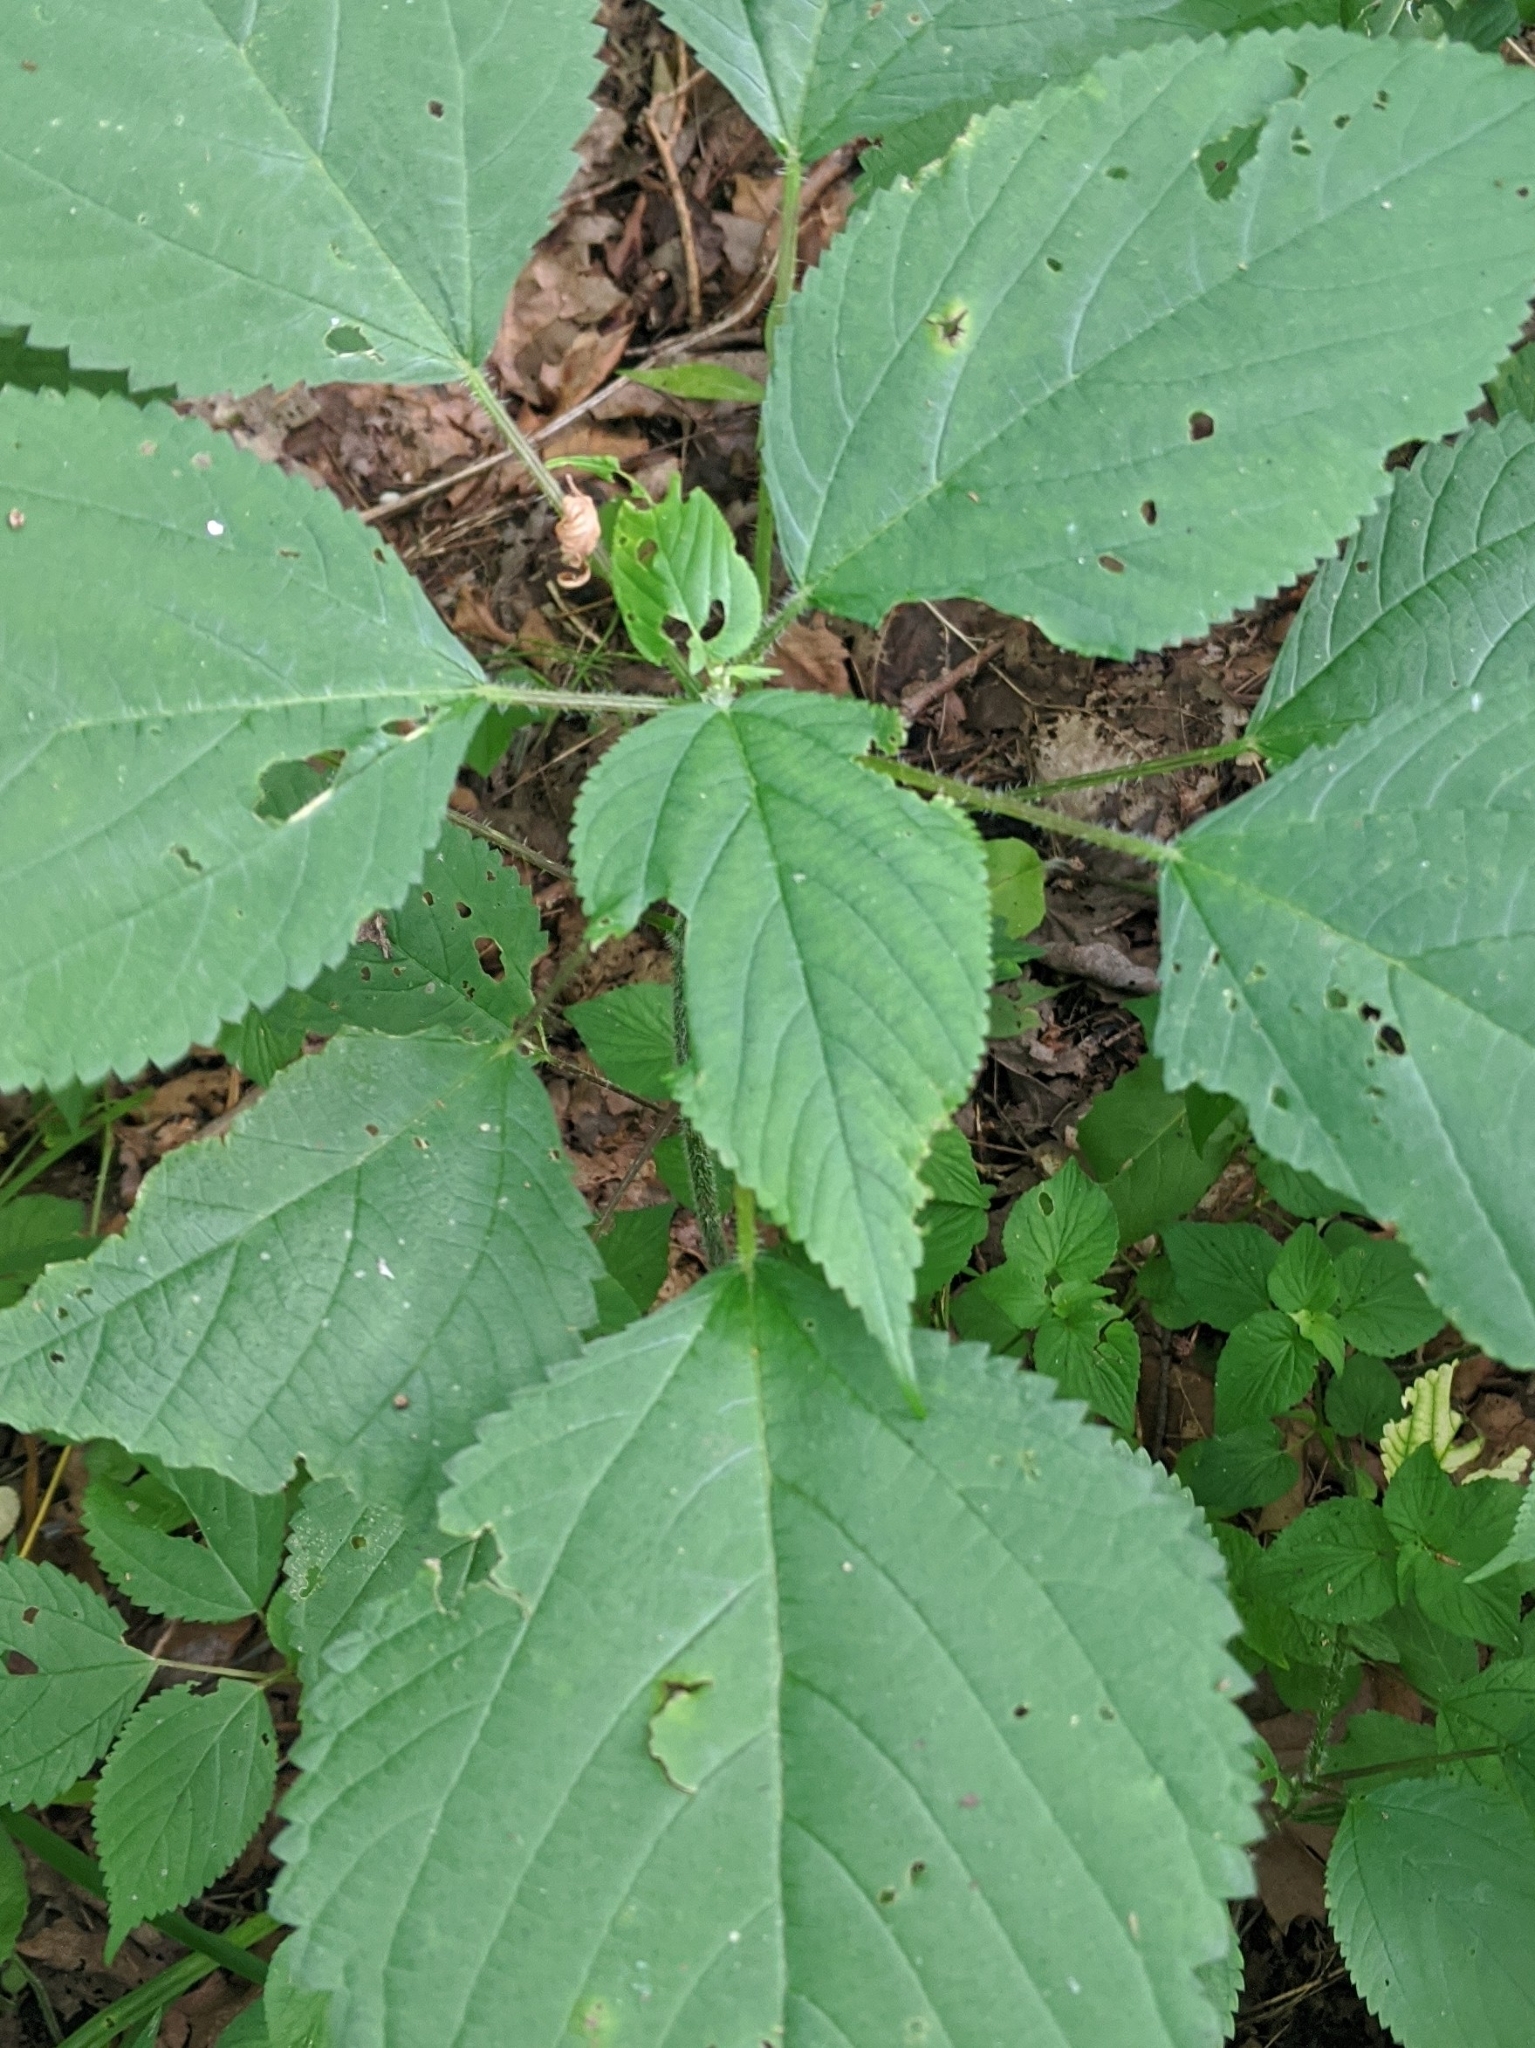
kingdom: Plantae
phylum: Tracheophyta
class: Magnoliopsida
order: Rosales
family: Urticaceae
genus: Laportea
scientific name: Laportea canadensis
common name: Canada nettle
